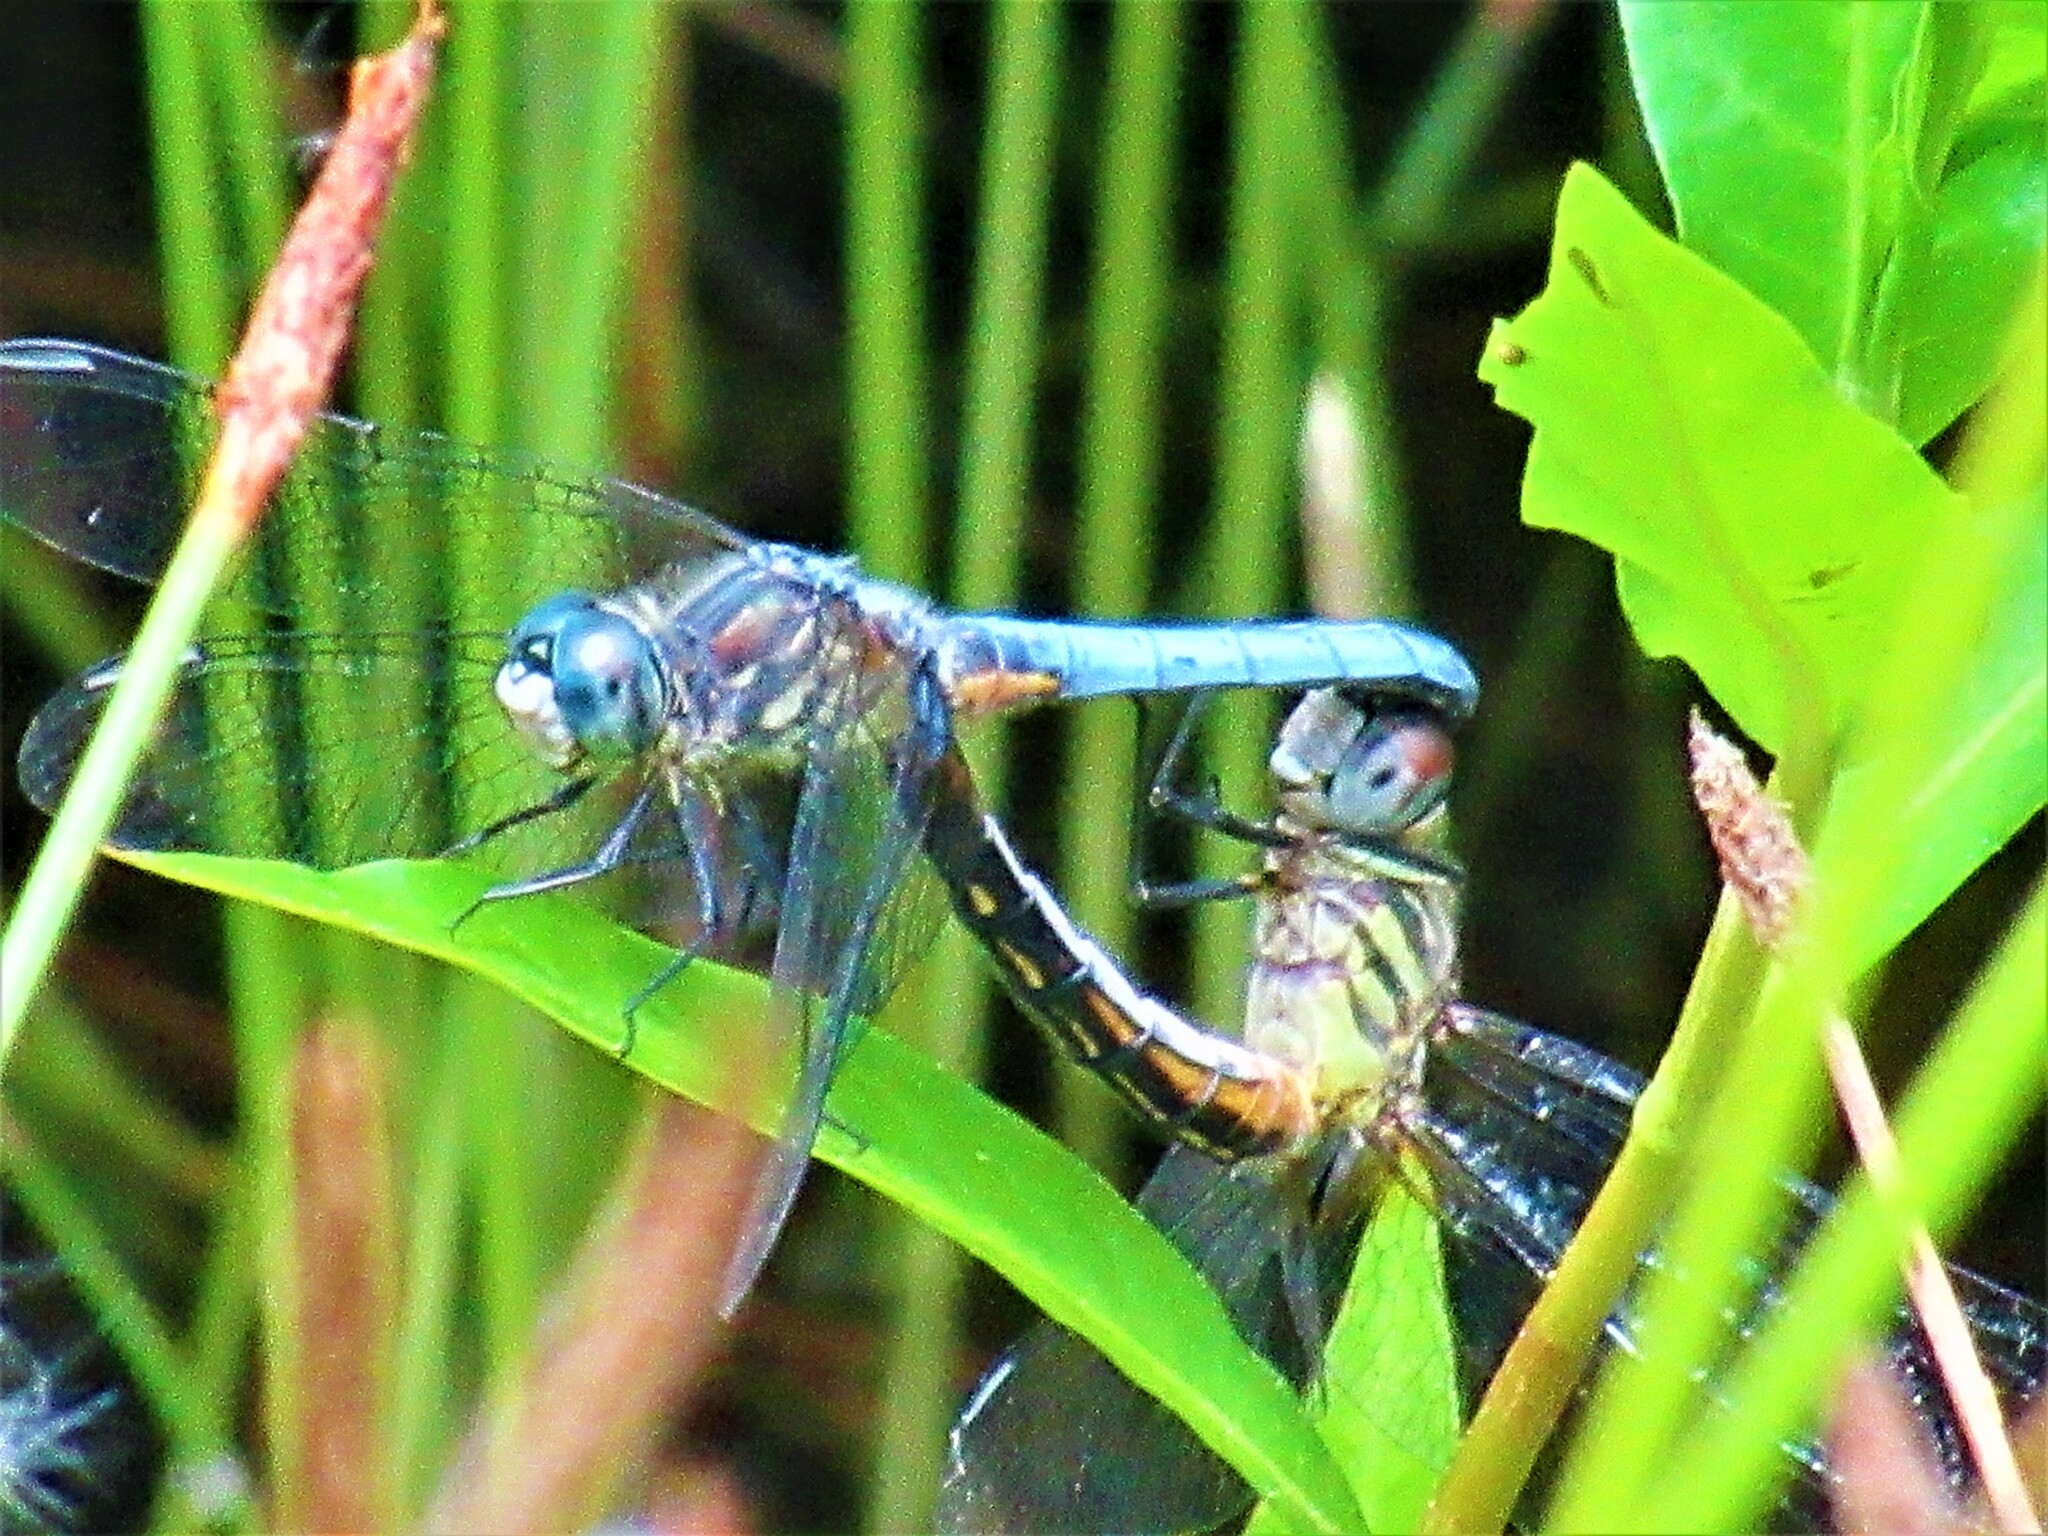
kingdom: Animalia
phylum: Arthropoda
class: Insecta
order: Odonata
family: Libellulidae
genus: Pachydiplax
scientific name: Pachydiplax longipennis
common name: Blue dasher
